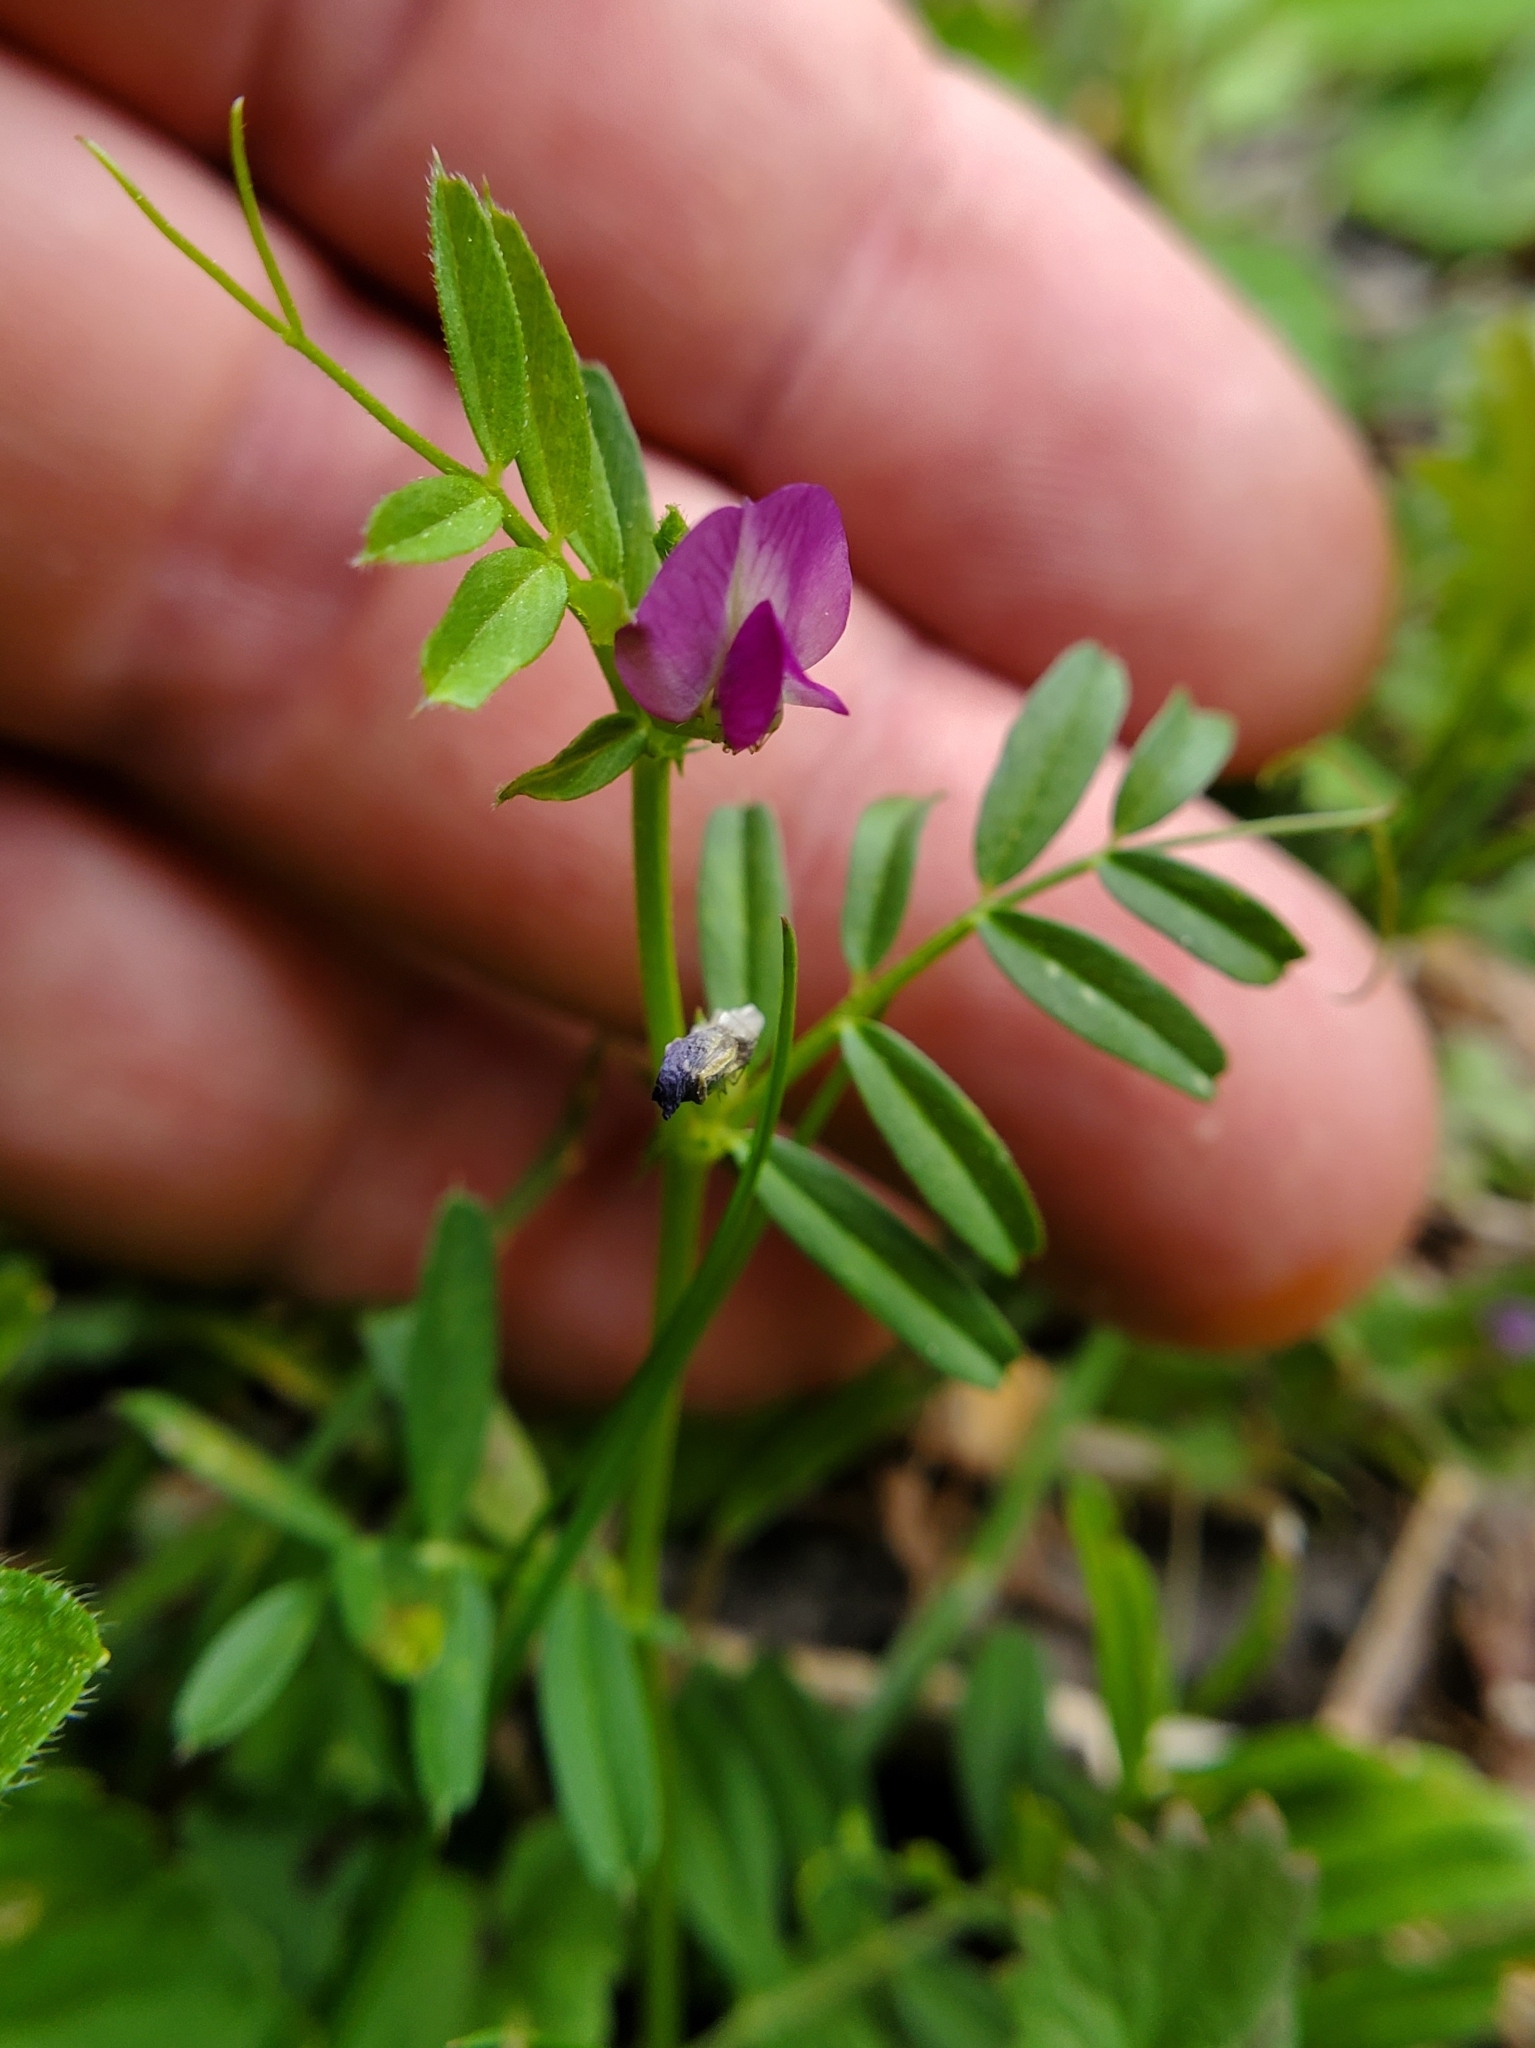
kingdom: Plantae
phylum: Tracheophyta
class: Magnoliopsida
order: Fabales
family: Fabaceae
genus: Vicia
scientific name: Vicia sativa
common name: Garden vetch
